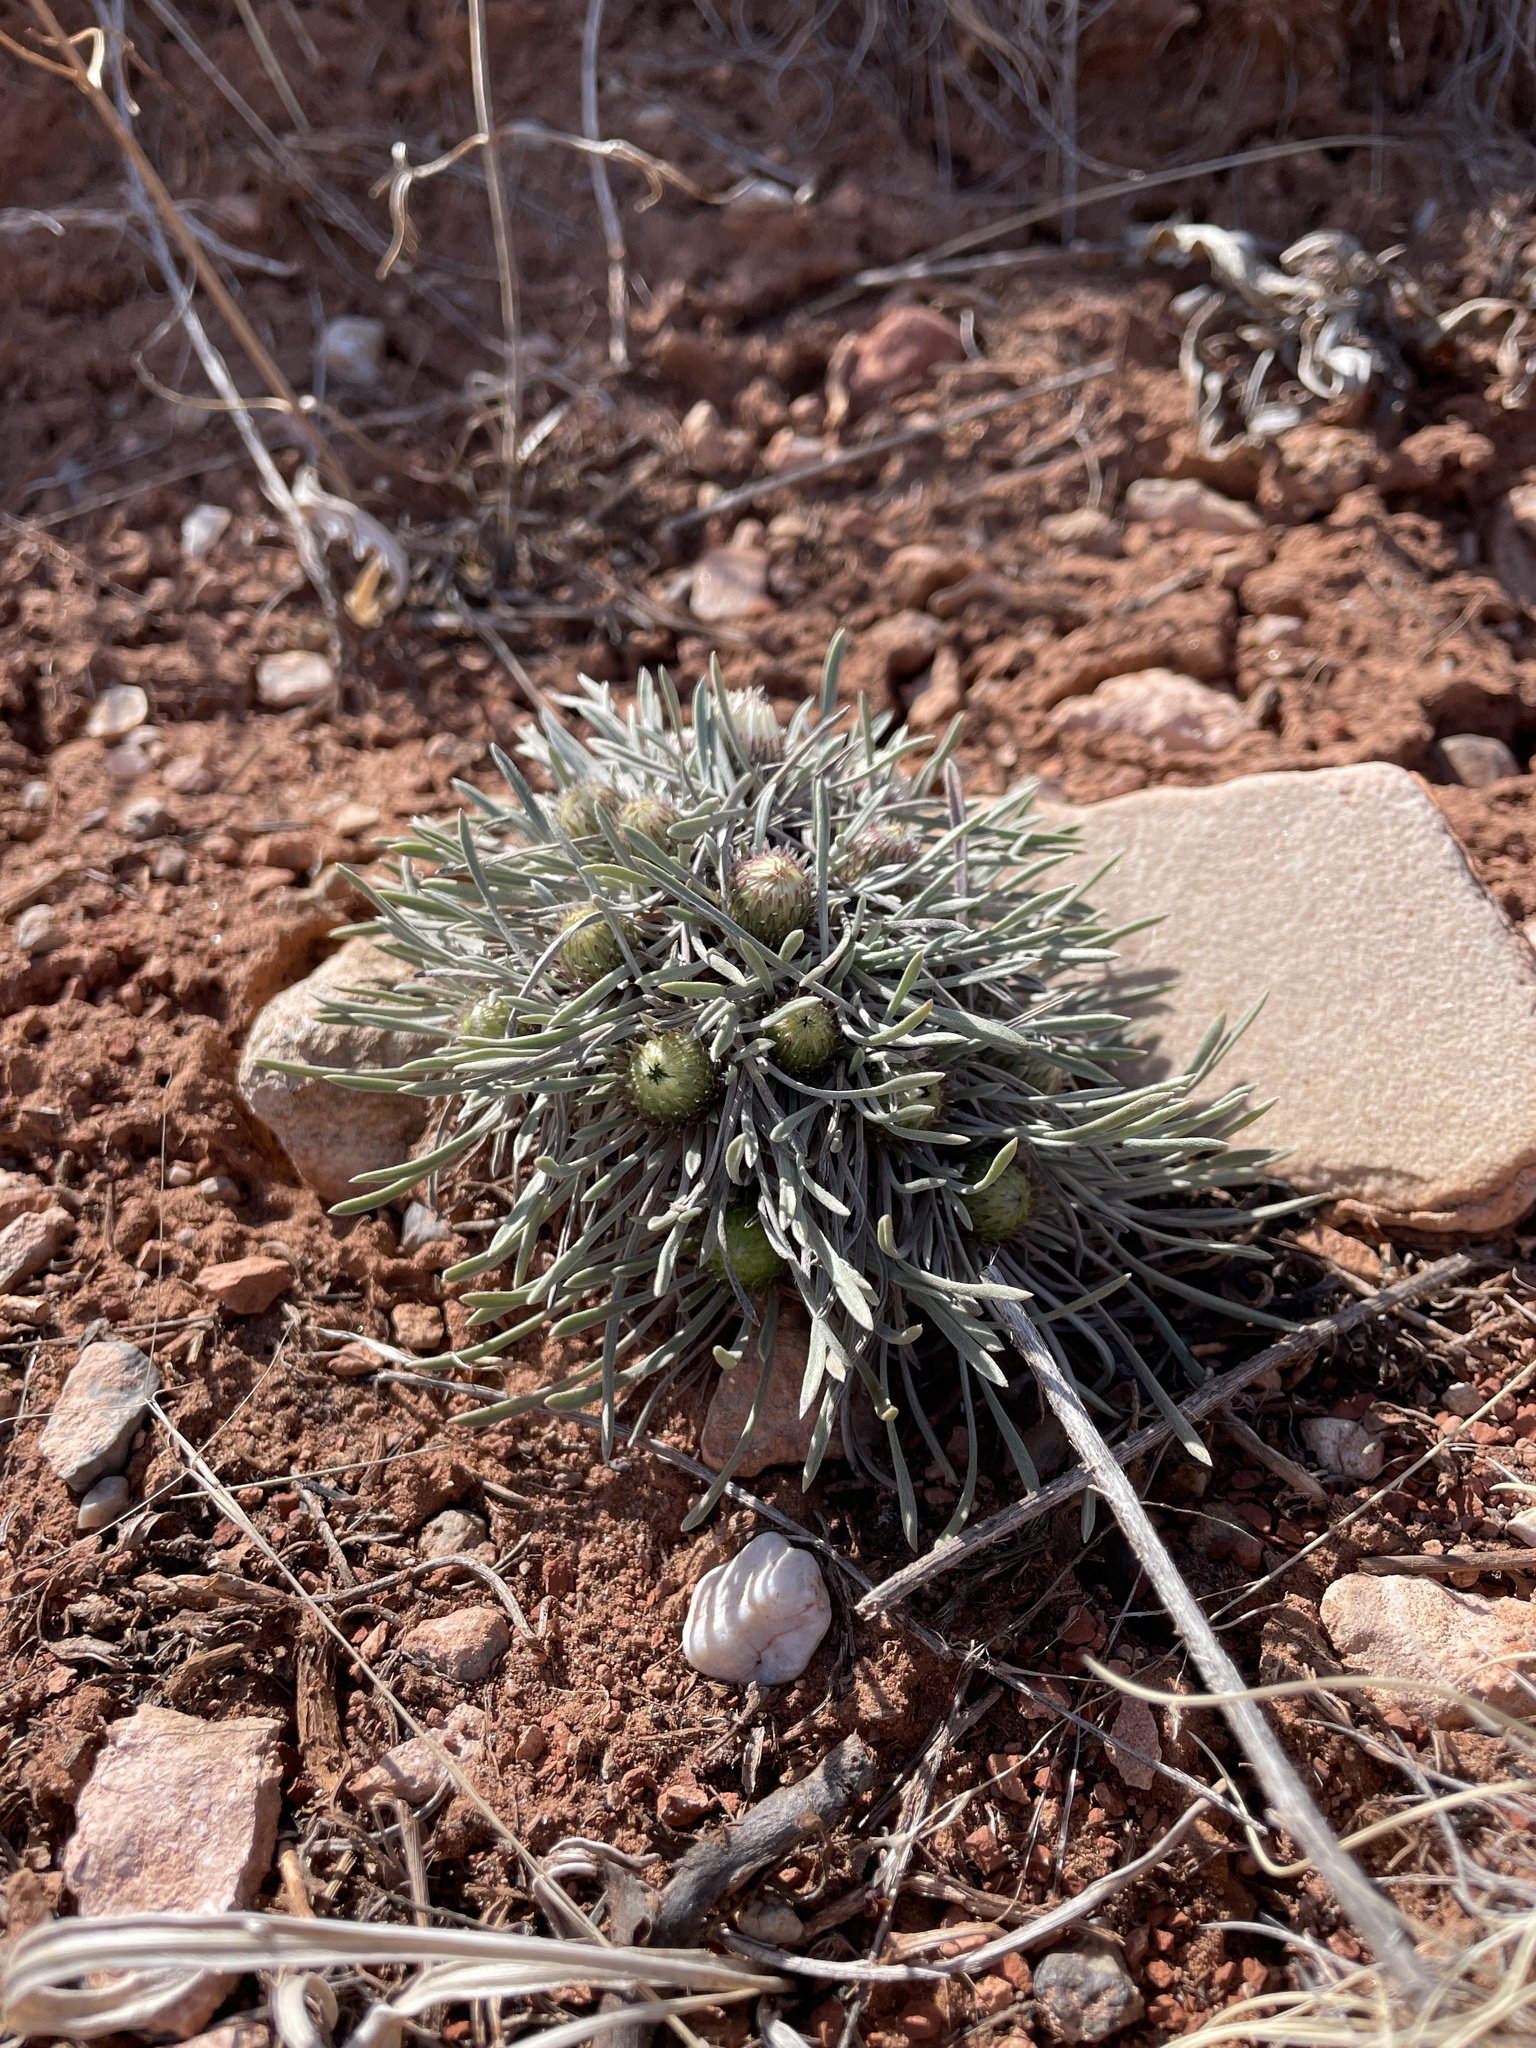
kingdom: Plantae
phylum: Tracheophyta
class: Magnoliopsida
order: Asterales
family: Asteraceae
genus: Townsendia
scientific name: Townsendia hookeri
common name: Hooker's townsend daisy
